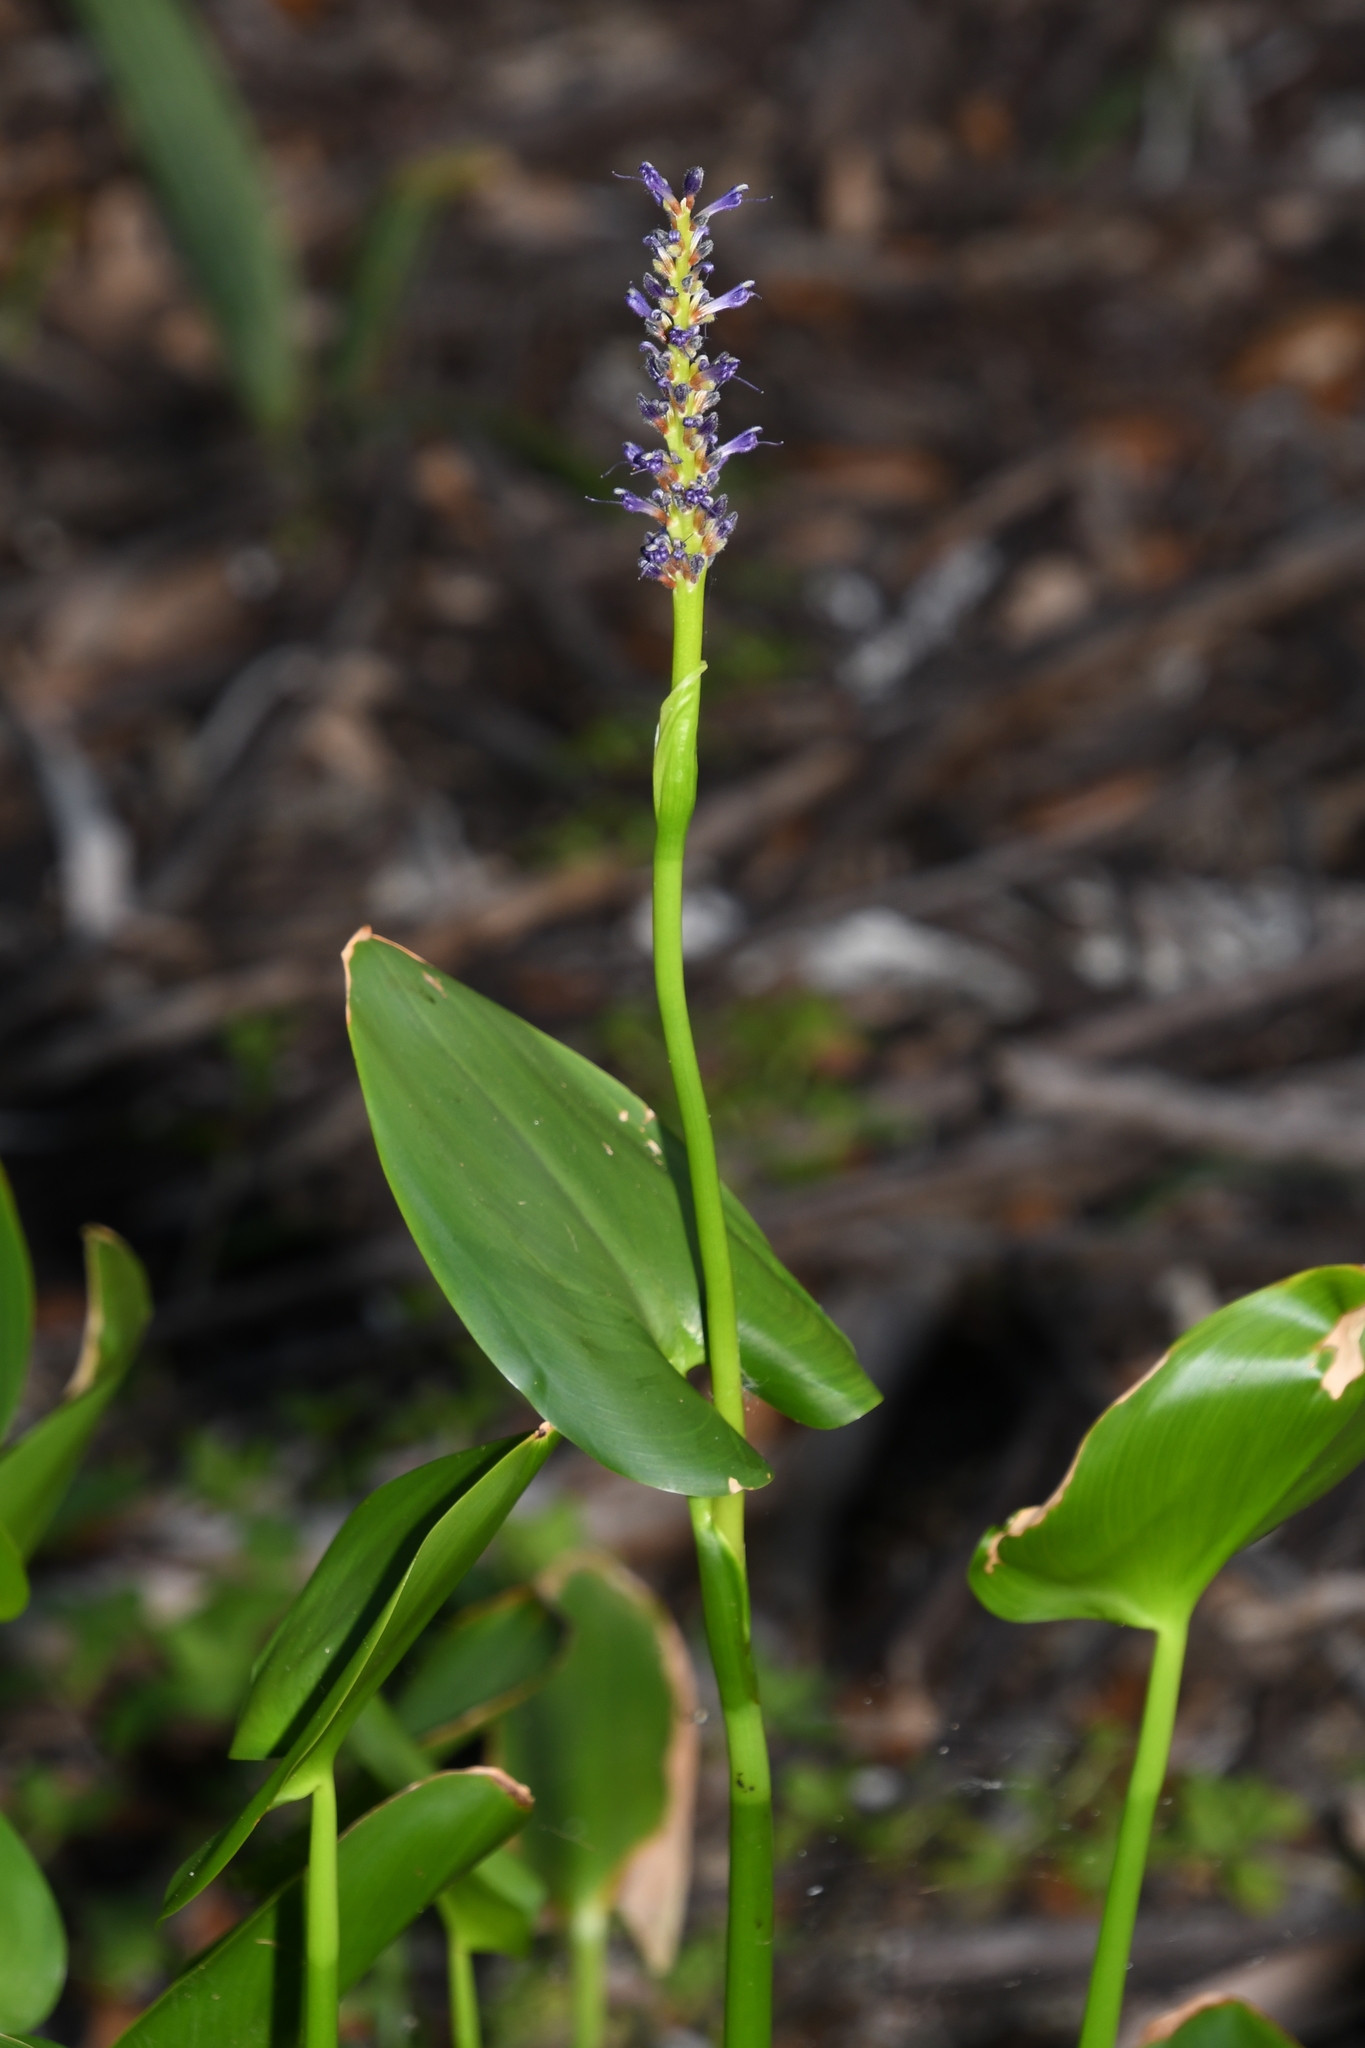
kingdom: Plantae
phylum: Tracheophyta
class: Liliopsida
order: Commelinales
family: Pontederiaceae
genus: Pontederia
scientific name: Pontederia cordata
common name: Pickerelweed
